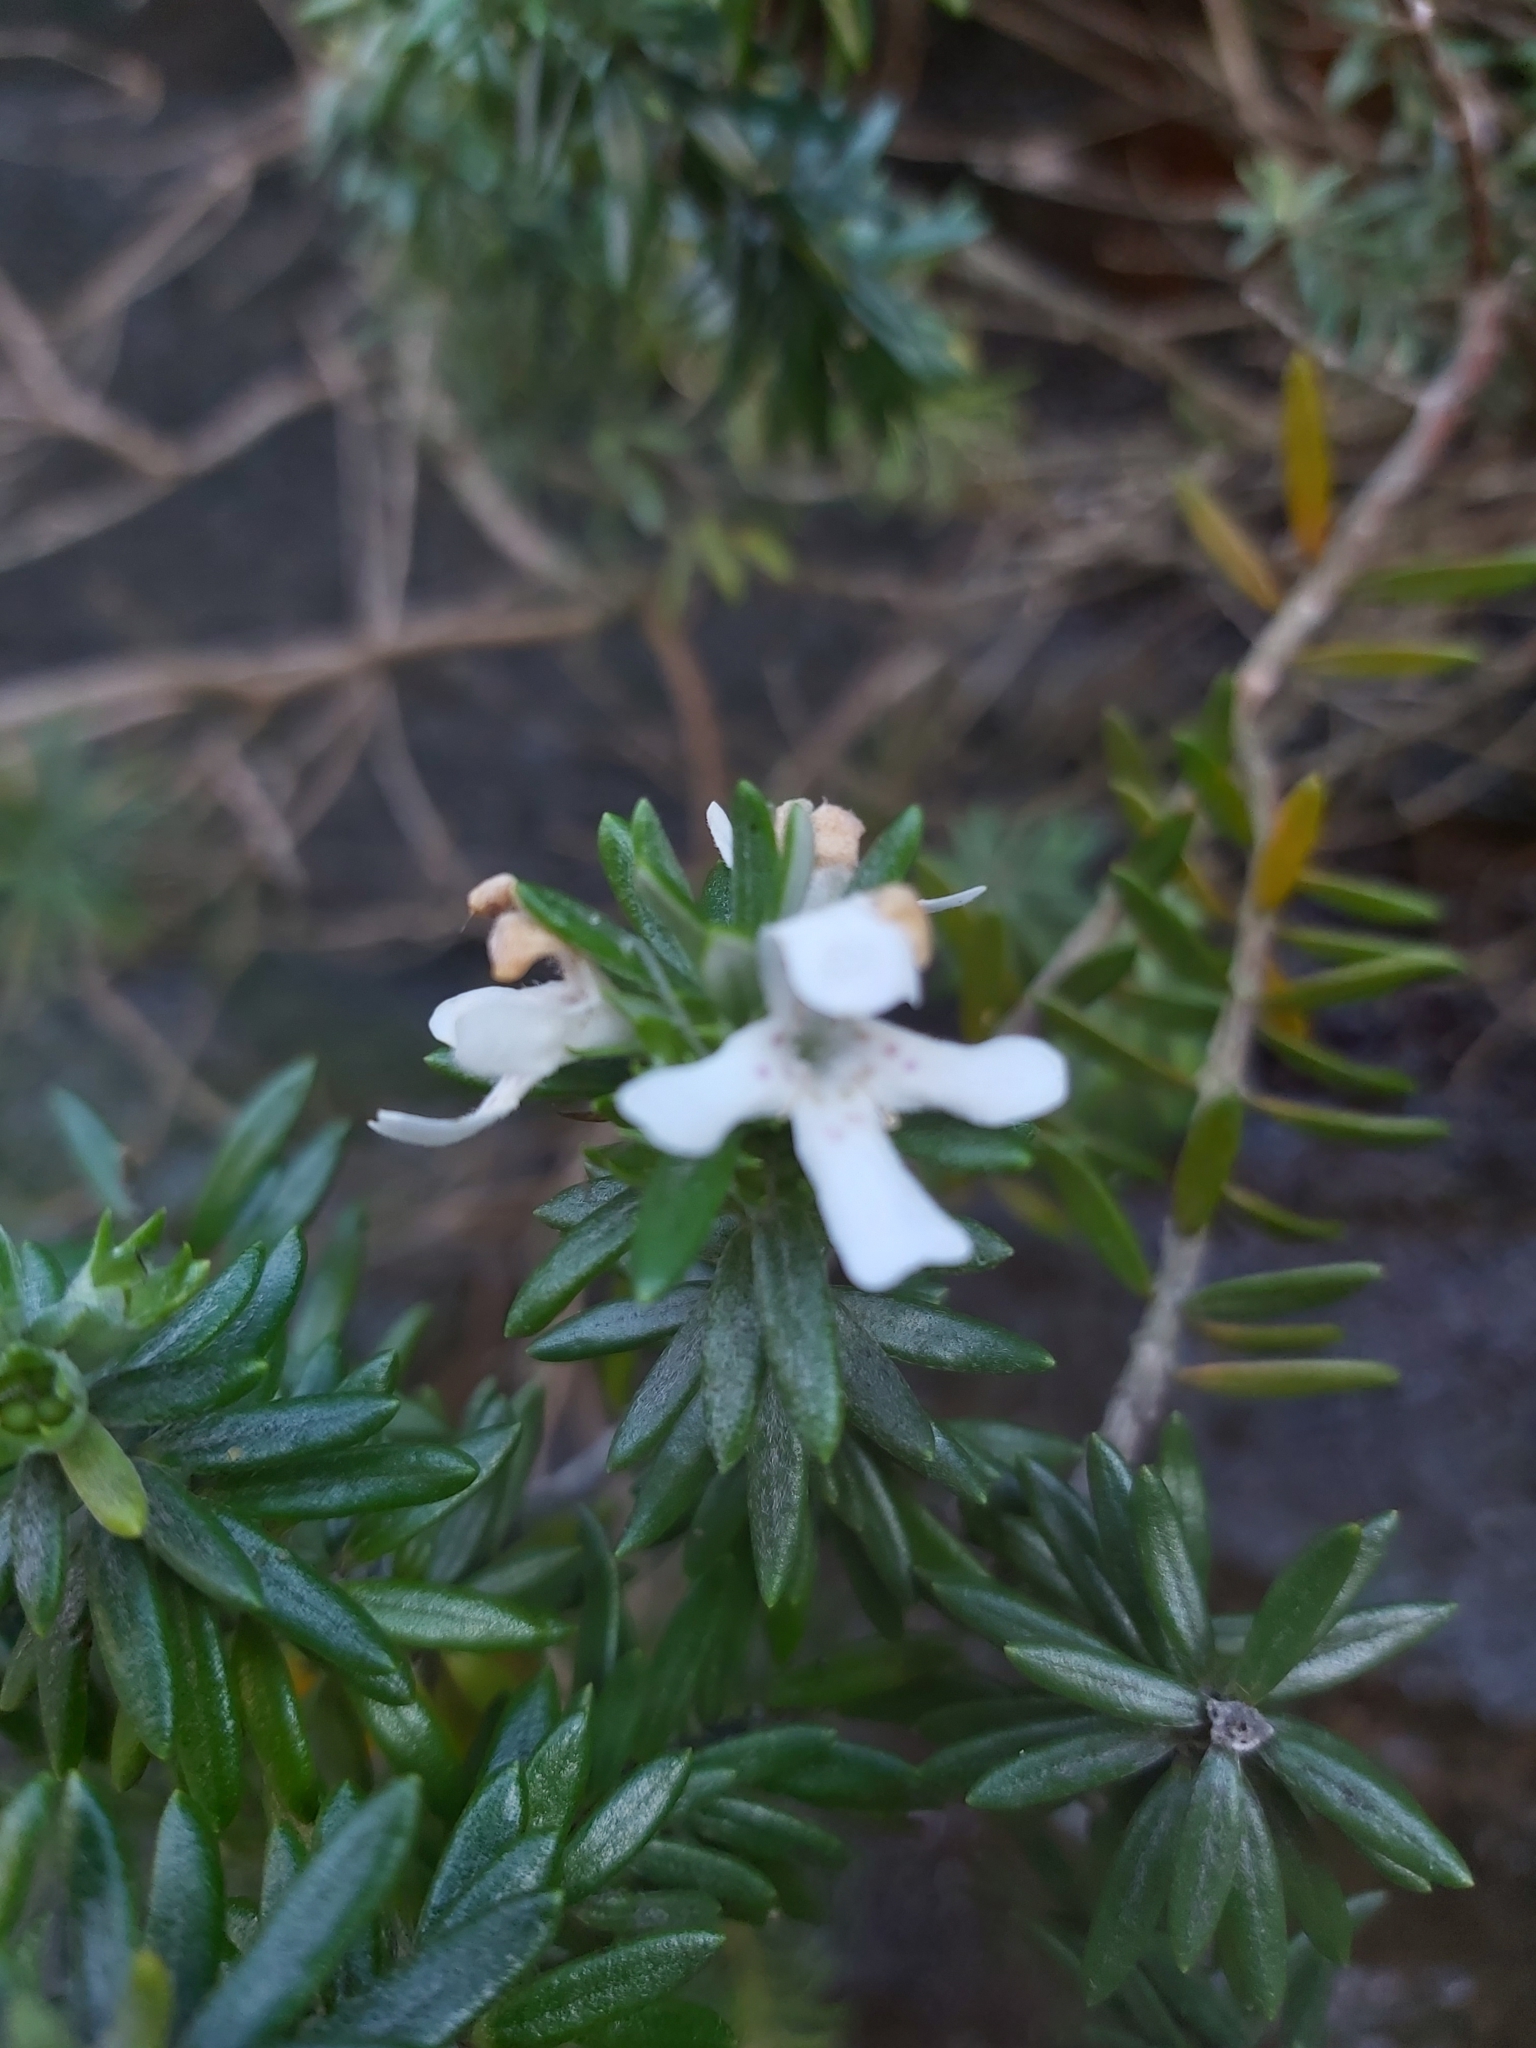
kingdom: Plantae
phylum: Tracheophyta
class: Magnoliopsida
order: Lamiales
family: Lamiaceae
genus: Westringia
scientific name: Westringia fruticosa
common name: Coastal-rosemary
